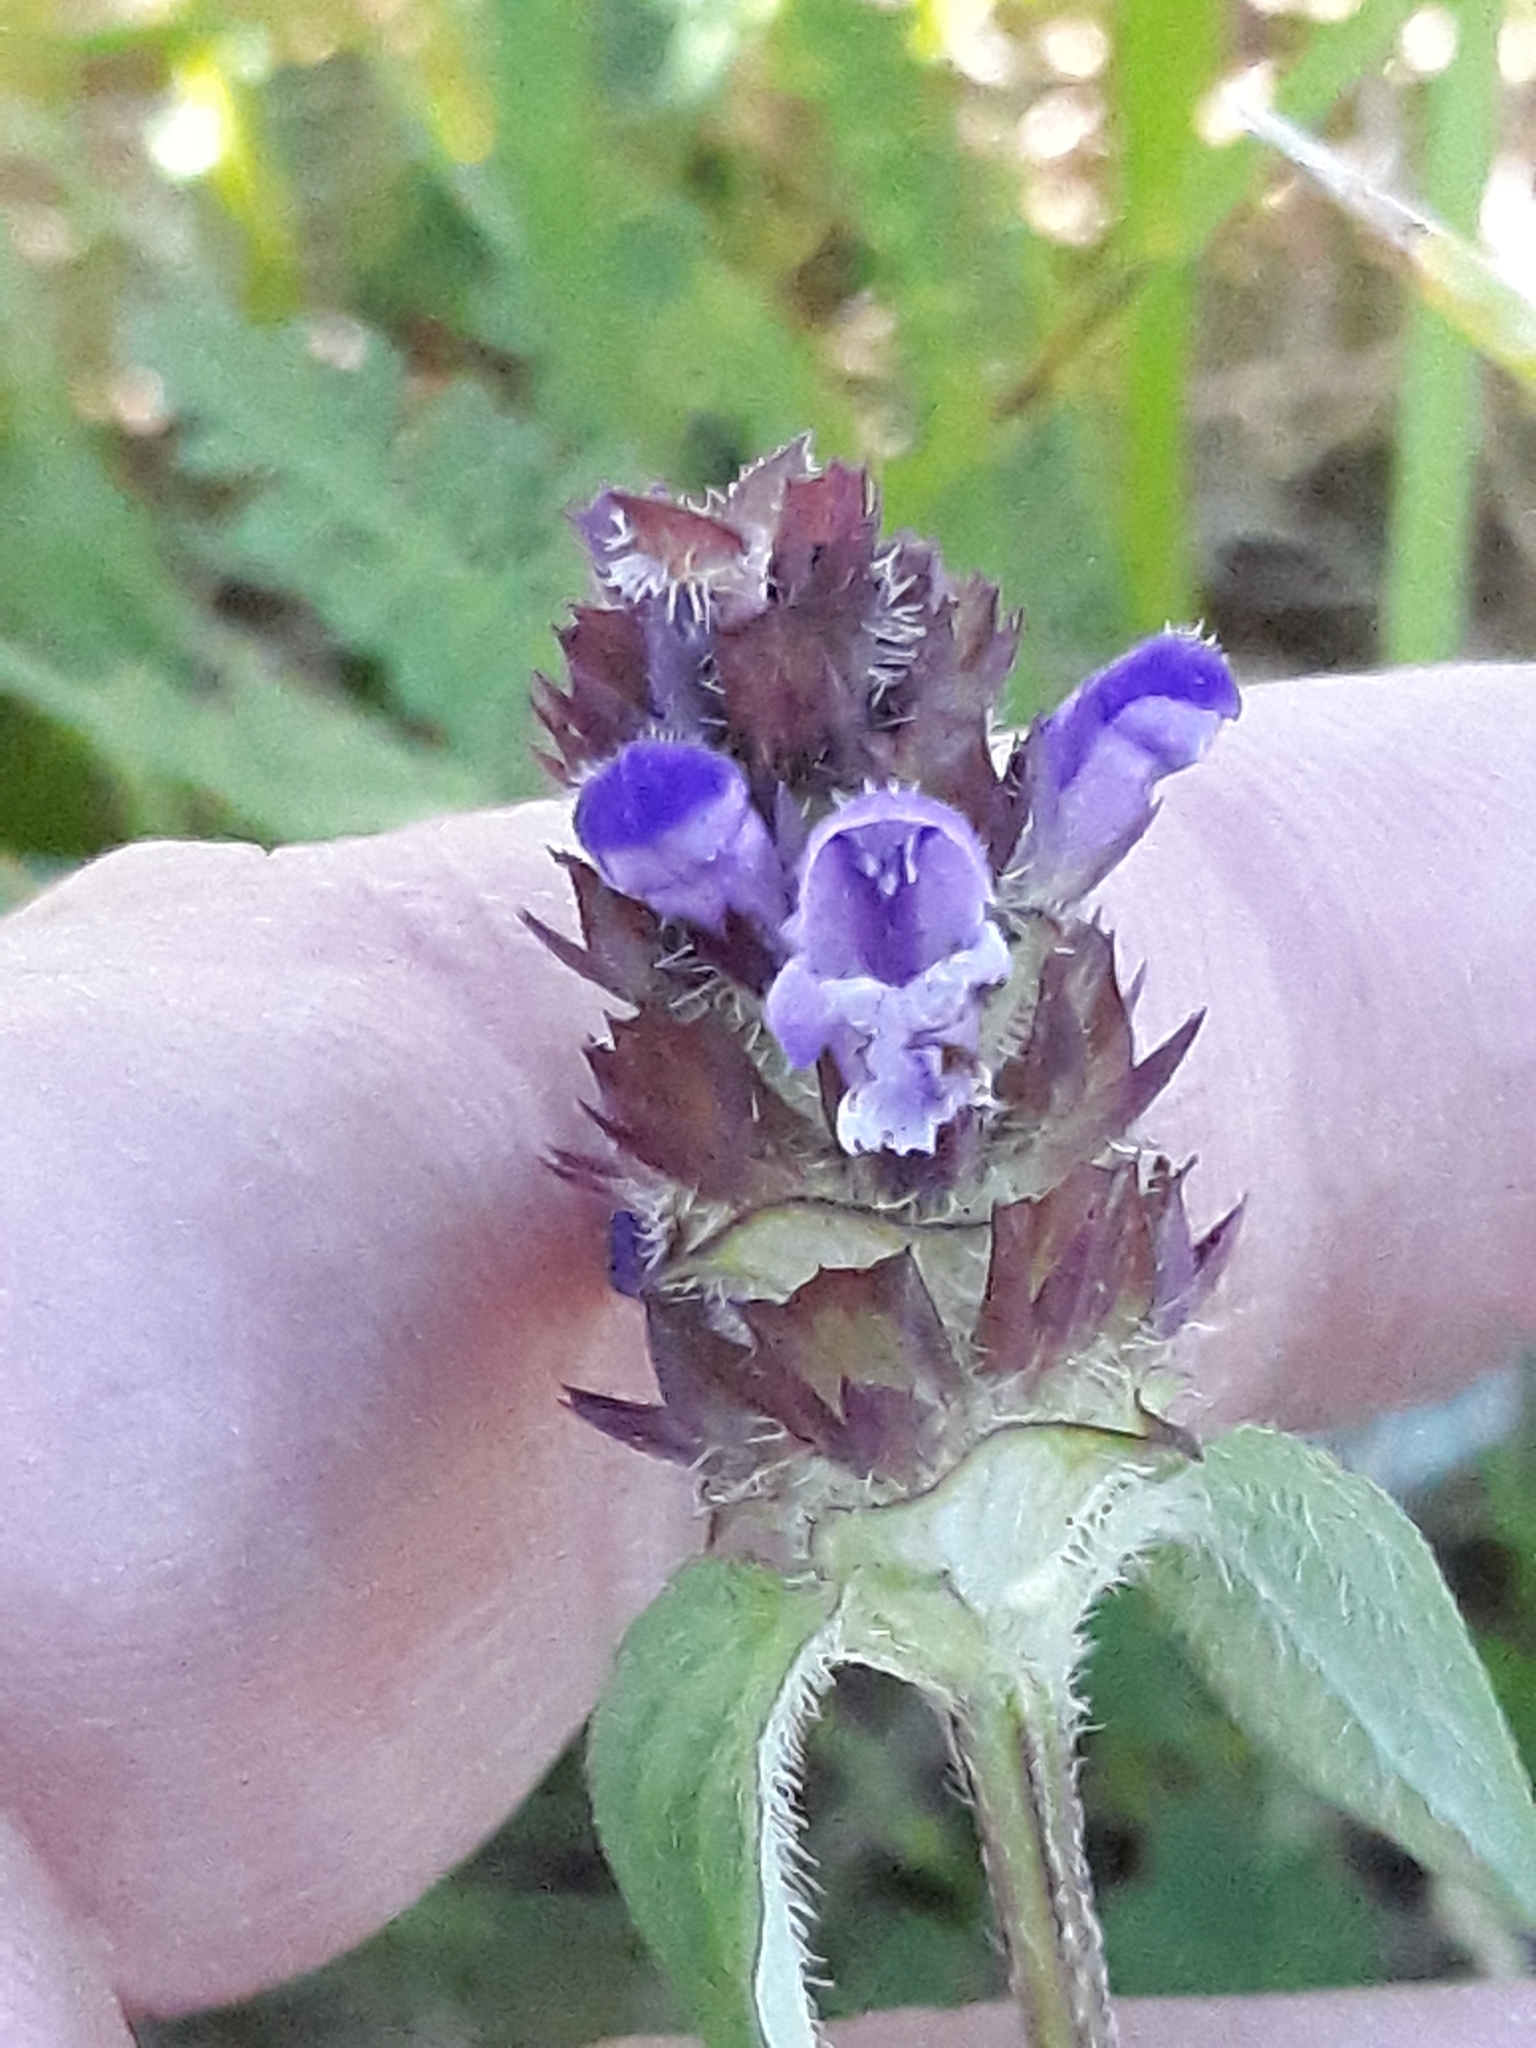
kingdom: Plantae
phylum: Tracheophyta
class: Magnoliopsida
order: Lamiales
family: Lamiaceae
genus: Prunella
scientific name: Prunella vulgaris
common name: Heal-all
